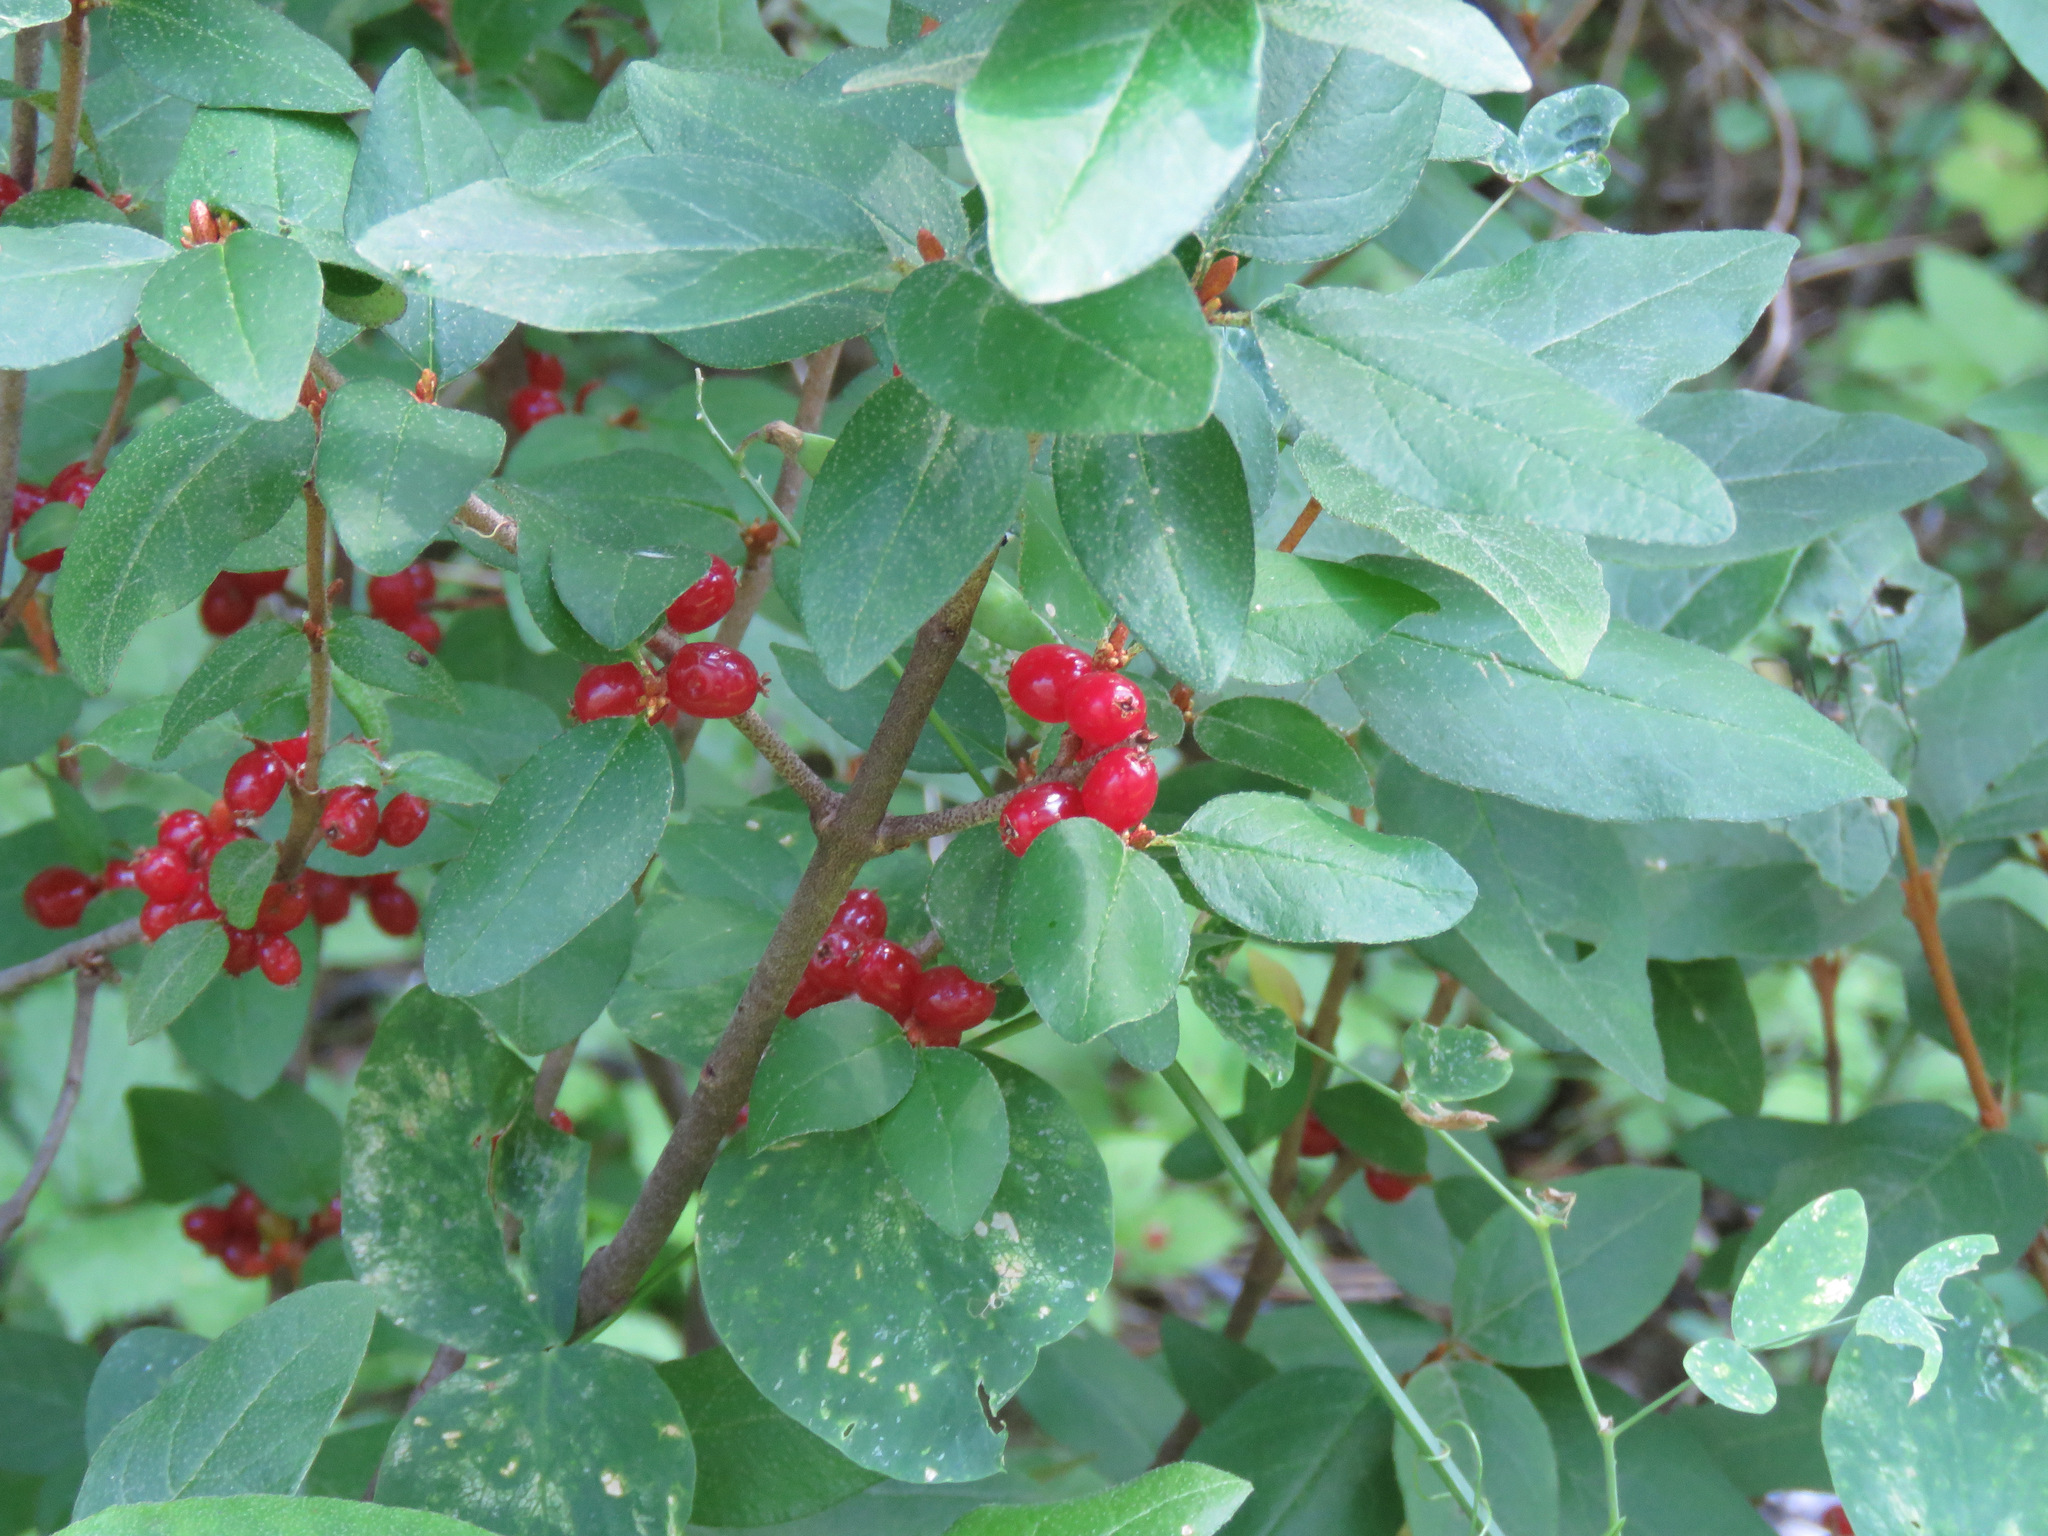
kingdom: Plantae
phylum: Tracheophyta
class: Magnoliopsida
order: Rosales
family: Elaeagnaceae
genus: Shepherdia
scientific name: Shepherdia canadensis
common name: Soapberry
